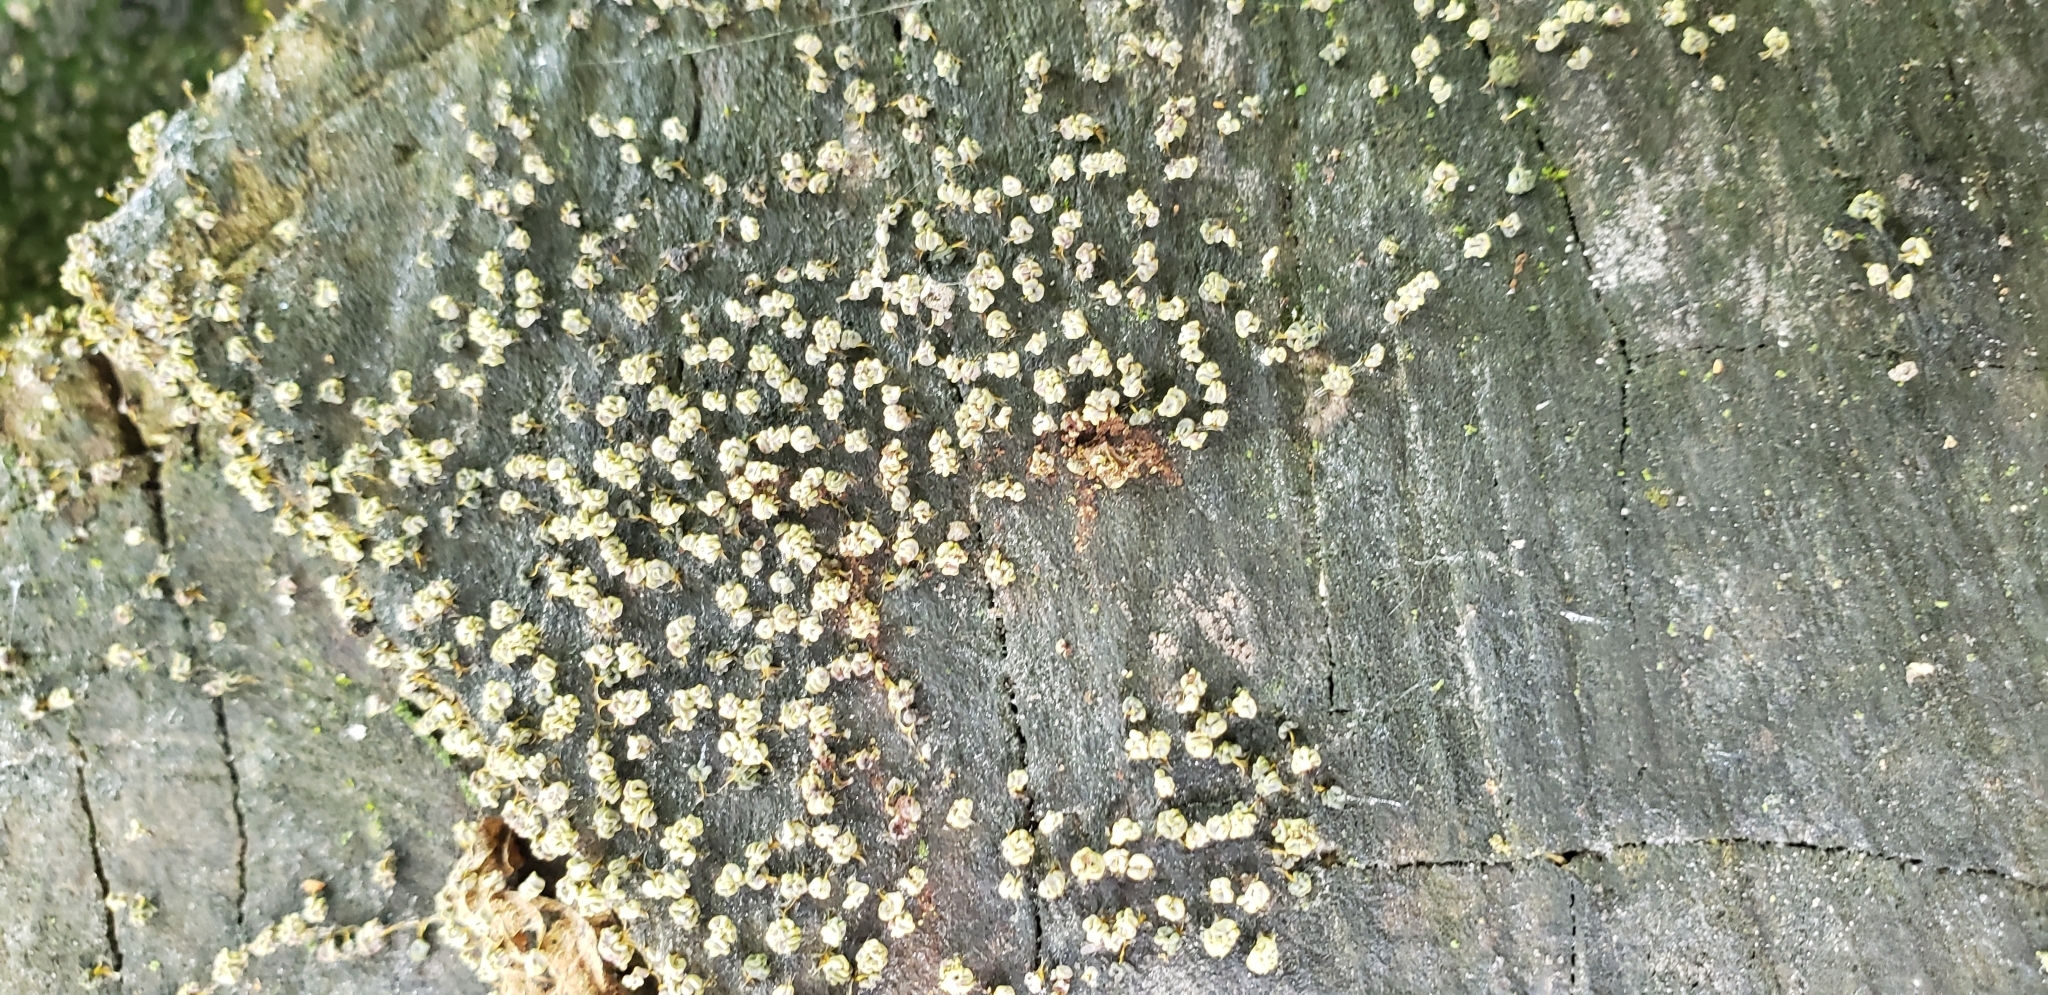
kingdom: Protozoa
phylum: Mycetozoa
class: Myxomycetes
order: Physarales
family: Physaraceae
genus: Physarum
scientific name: Physarum polycephalum
